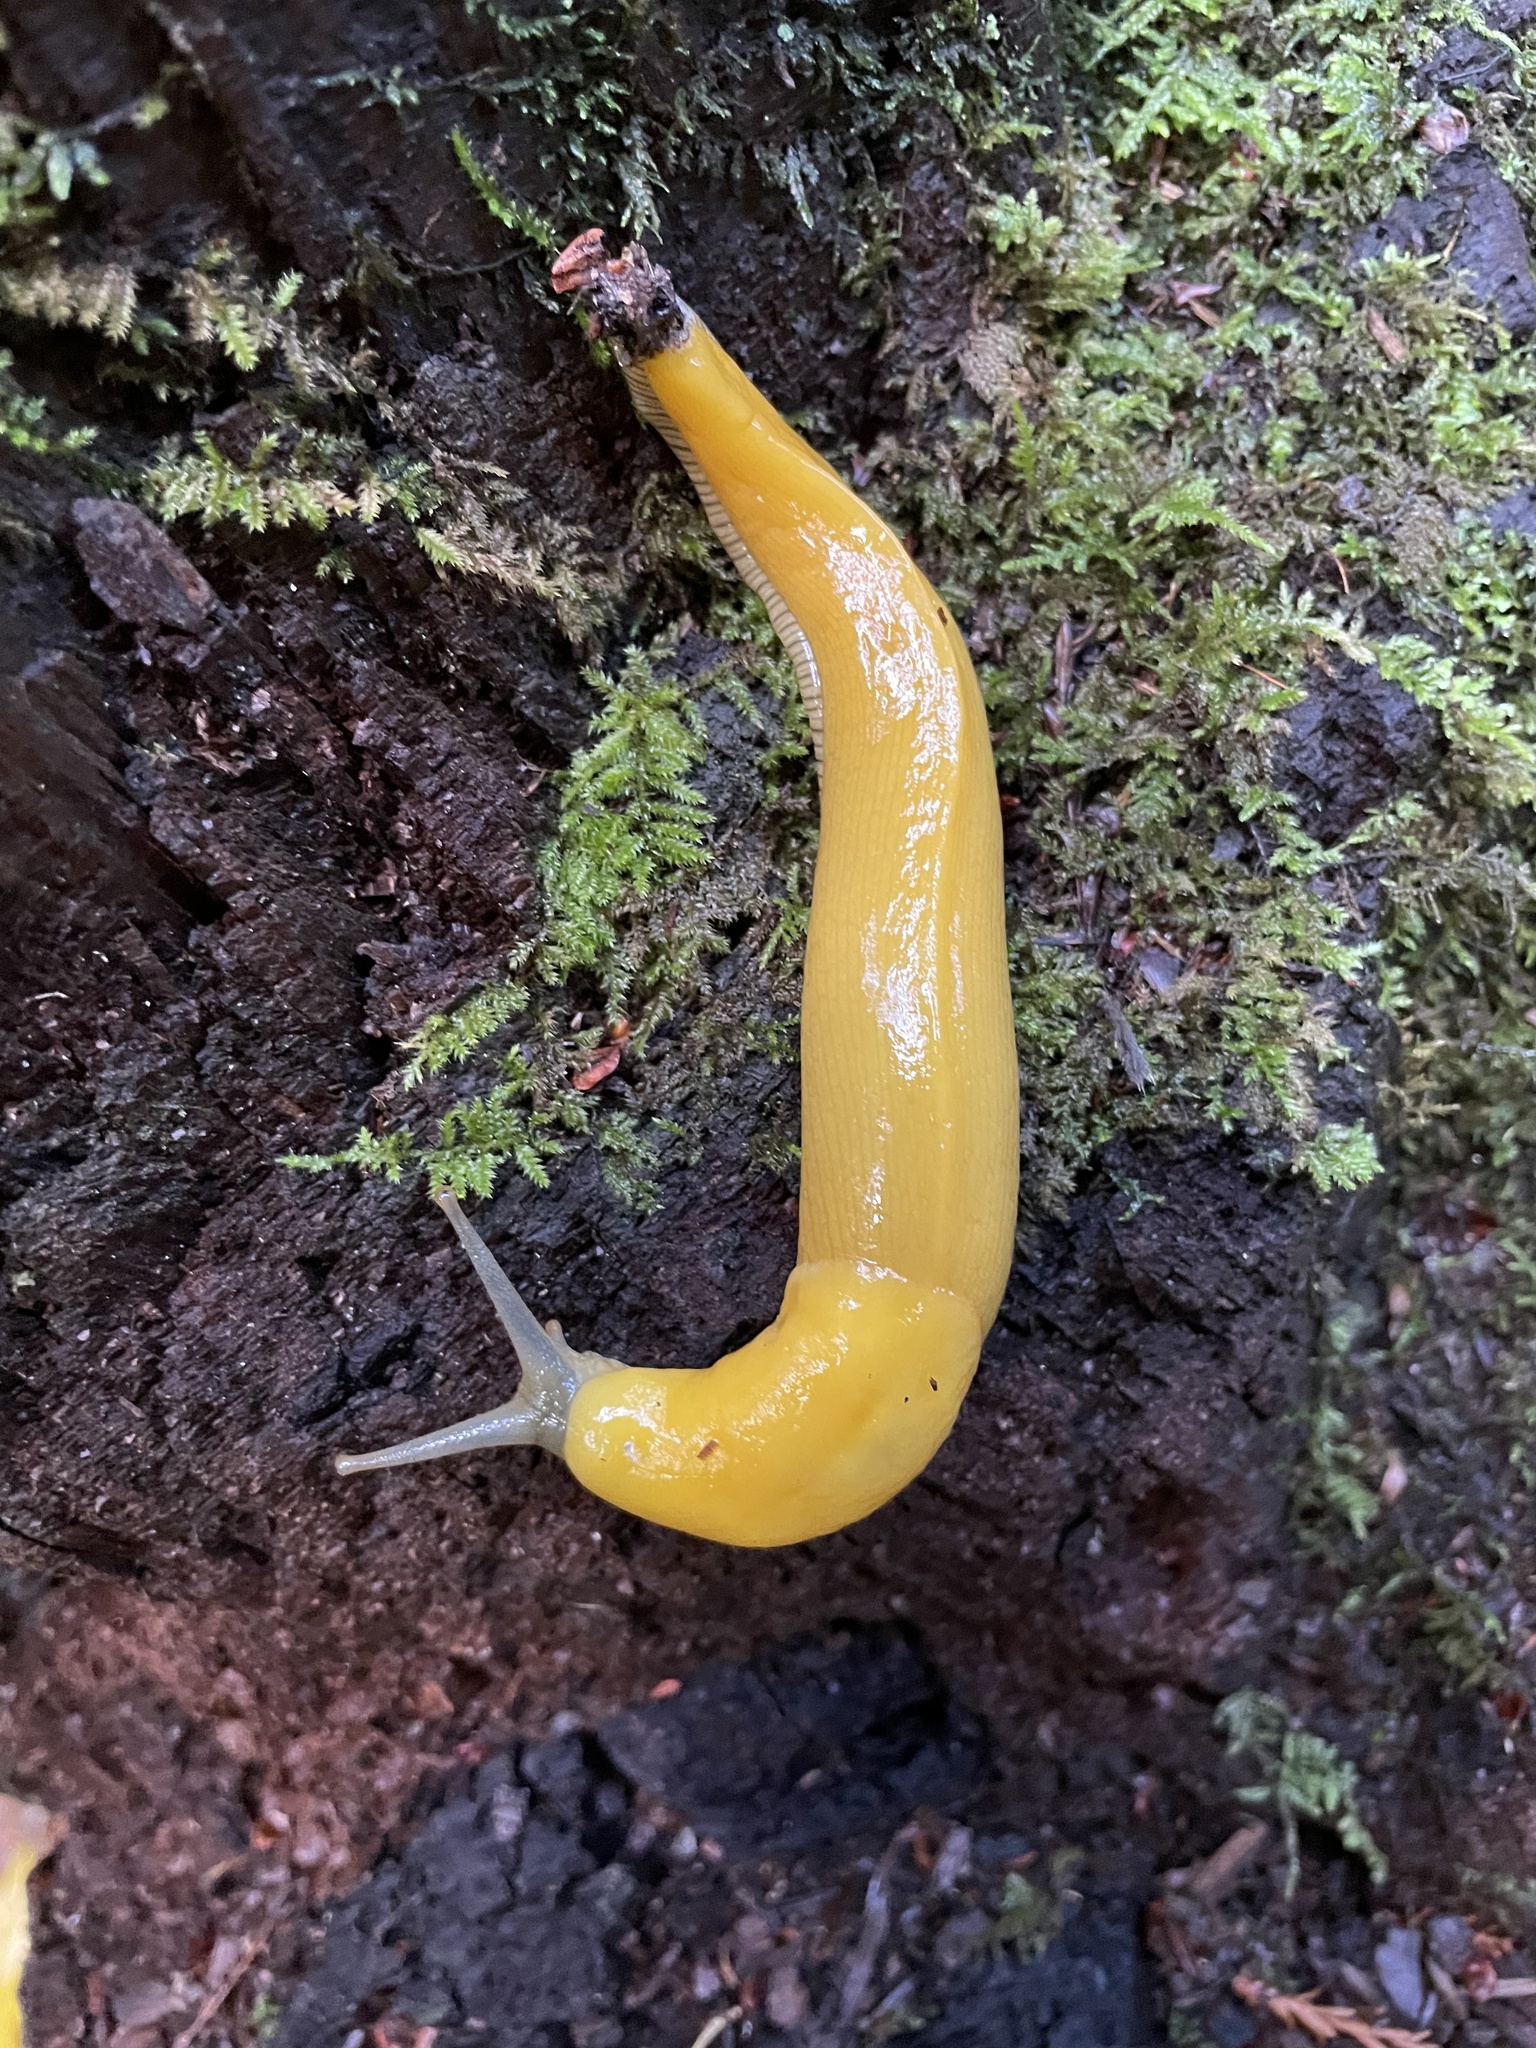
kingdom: Animalia
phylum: Mollusca
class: Gastropoda
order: Stylommatophora
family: Ariolimacidae
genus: Ariolimax
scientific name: Ariolimax californicus
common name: California banana slug
